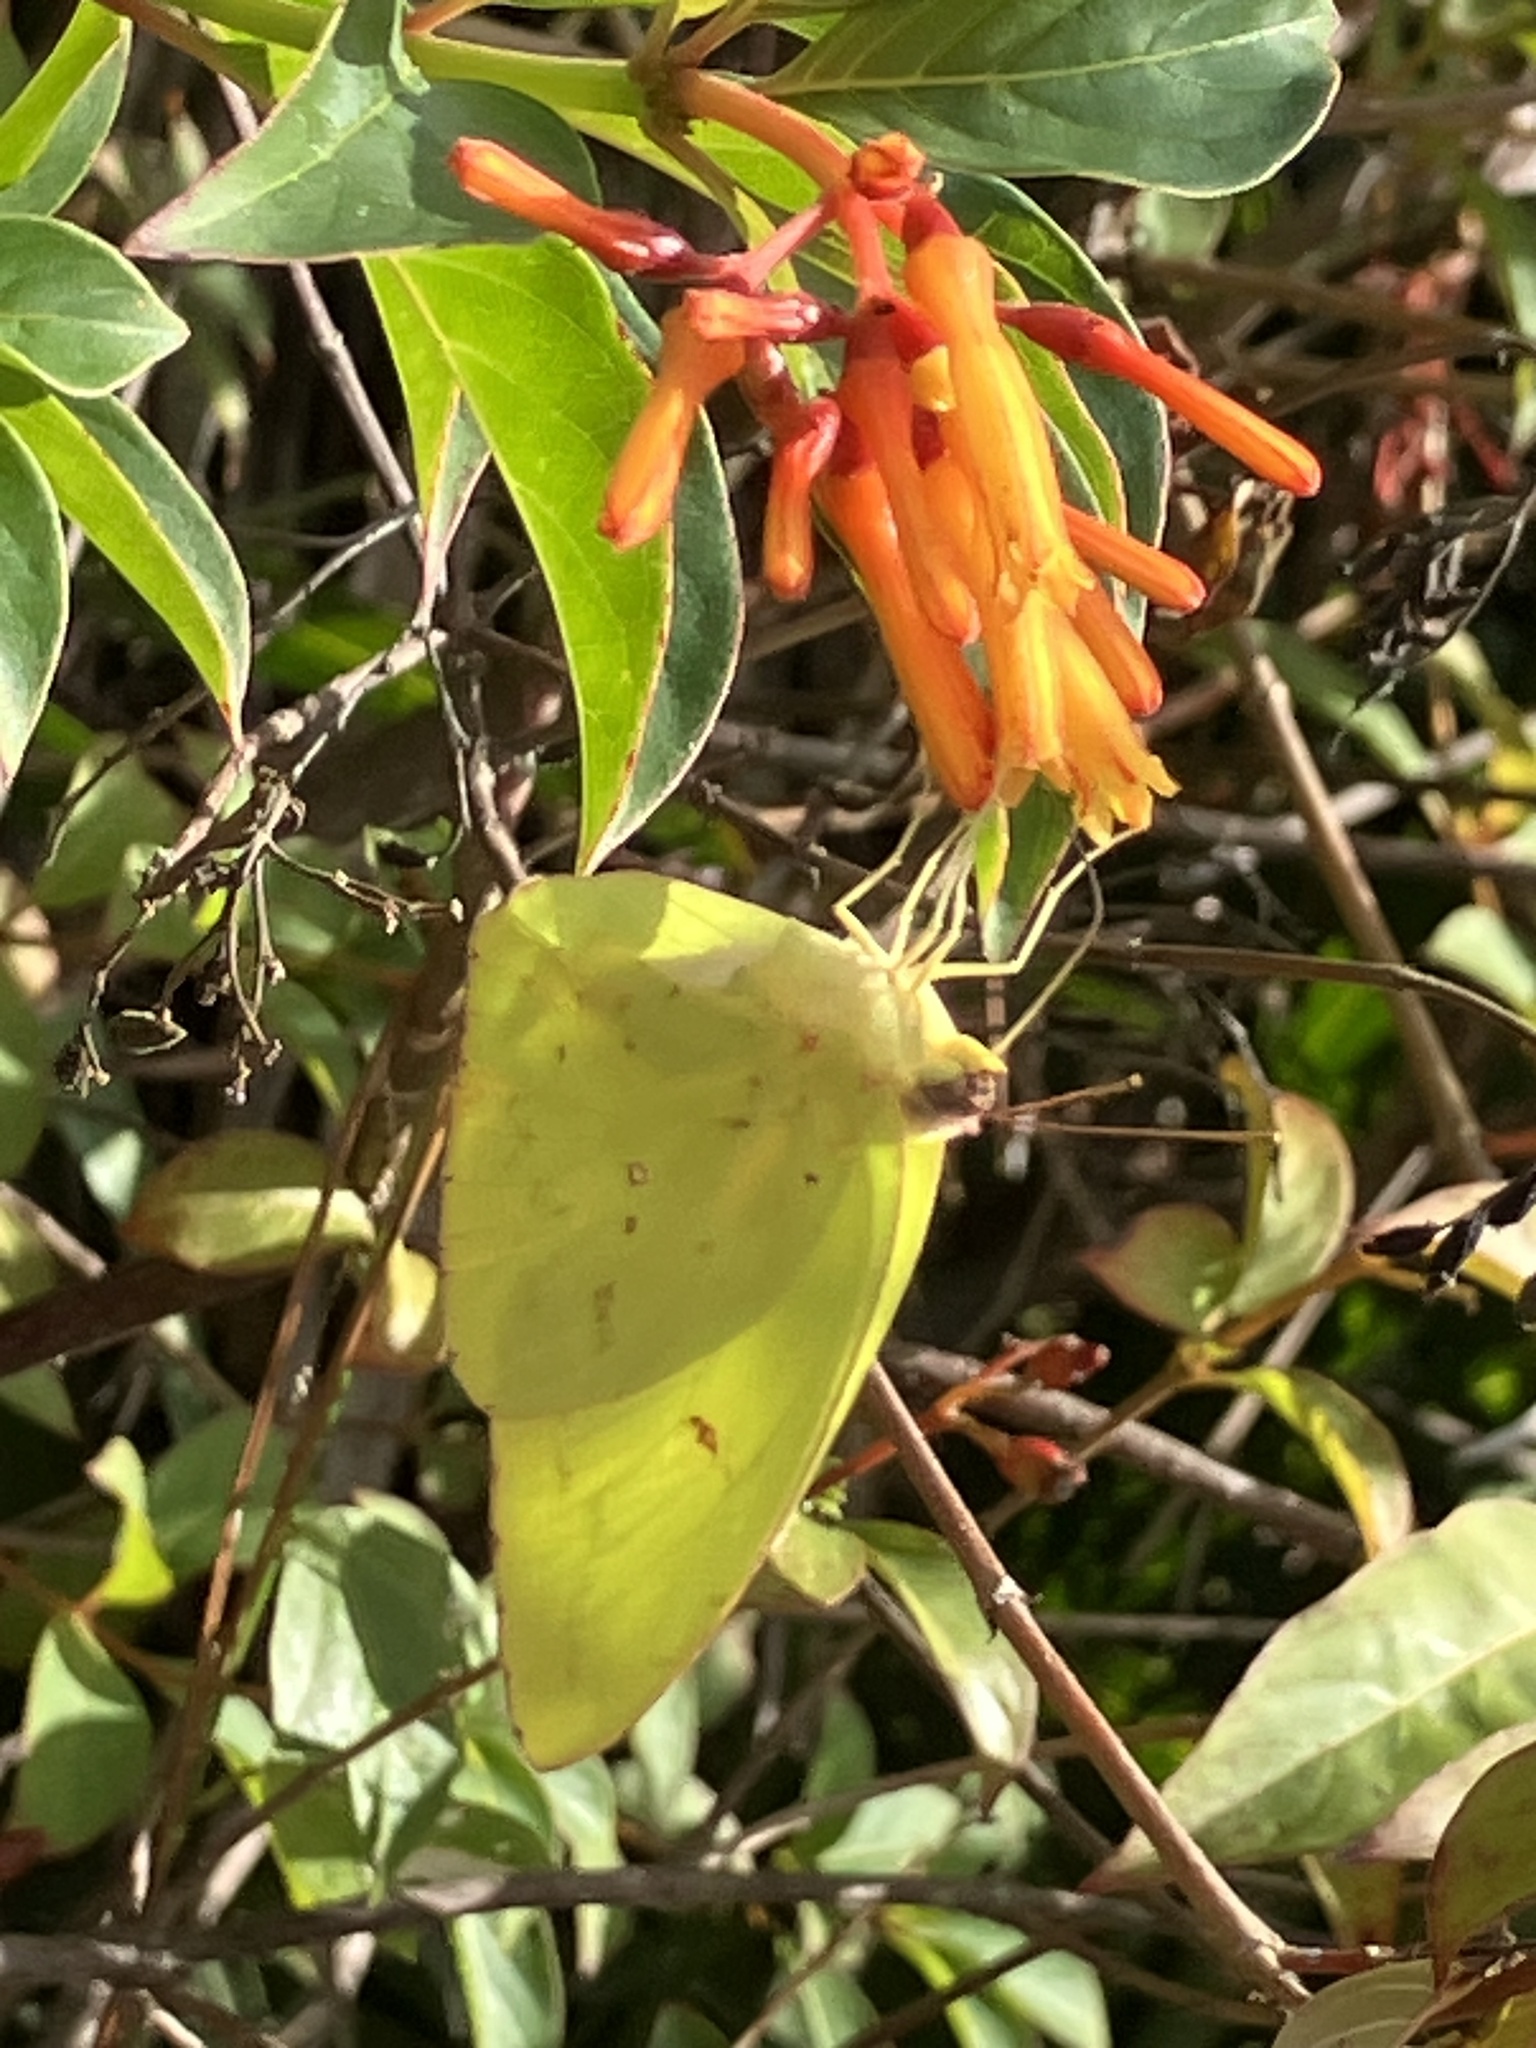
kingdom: Animalia
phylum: Arthropoda
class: Insecta
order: Lepidoptera
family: Pieridae
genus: Phoebis
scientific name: Phoebis sennae
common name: Cloudless sulphur
